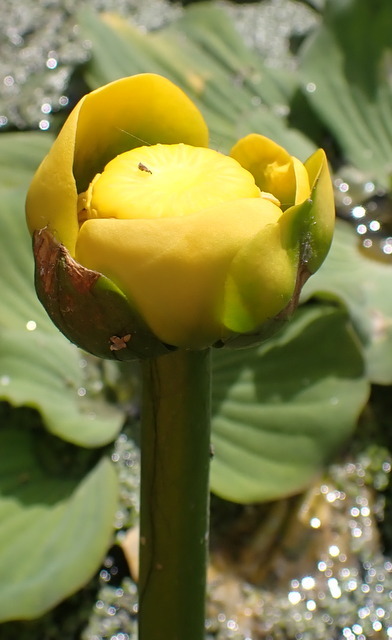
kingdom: Plantae
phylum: Tracheophyta
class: Magnoliopsida
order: Nymphaeales
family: Nymphaeaceae
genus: Nuphar
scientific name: Nuphar advena
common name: Spatter-dock
